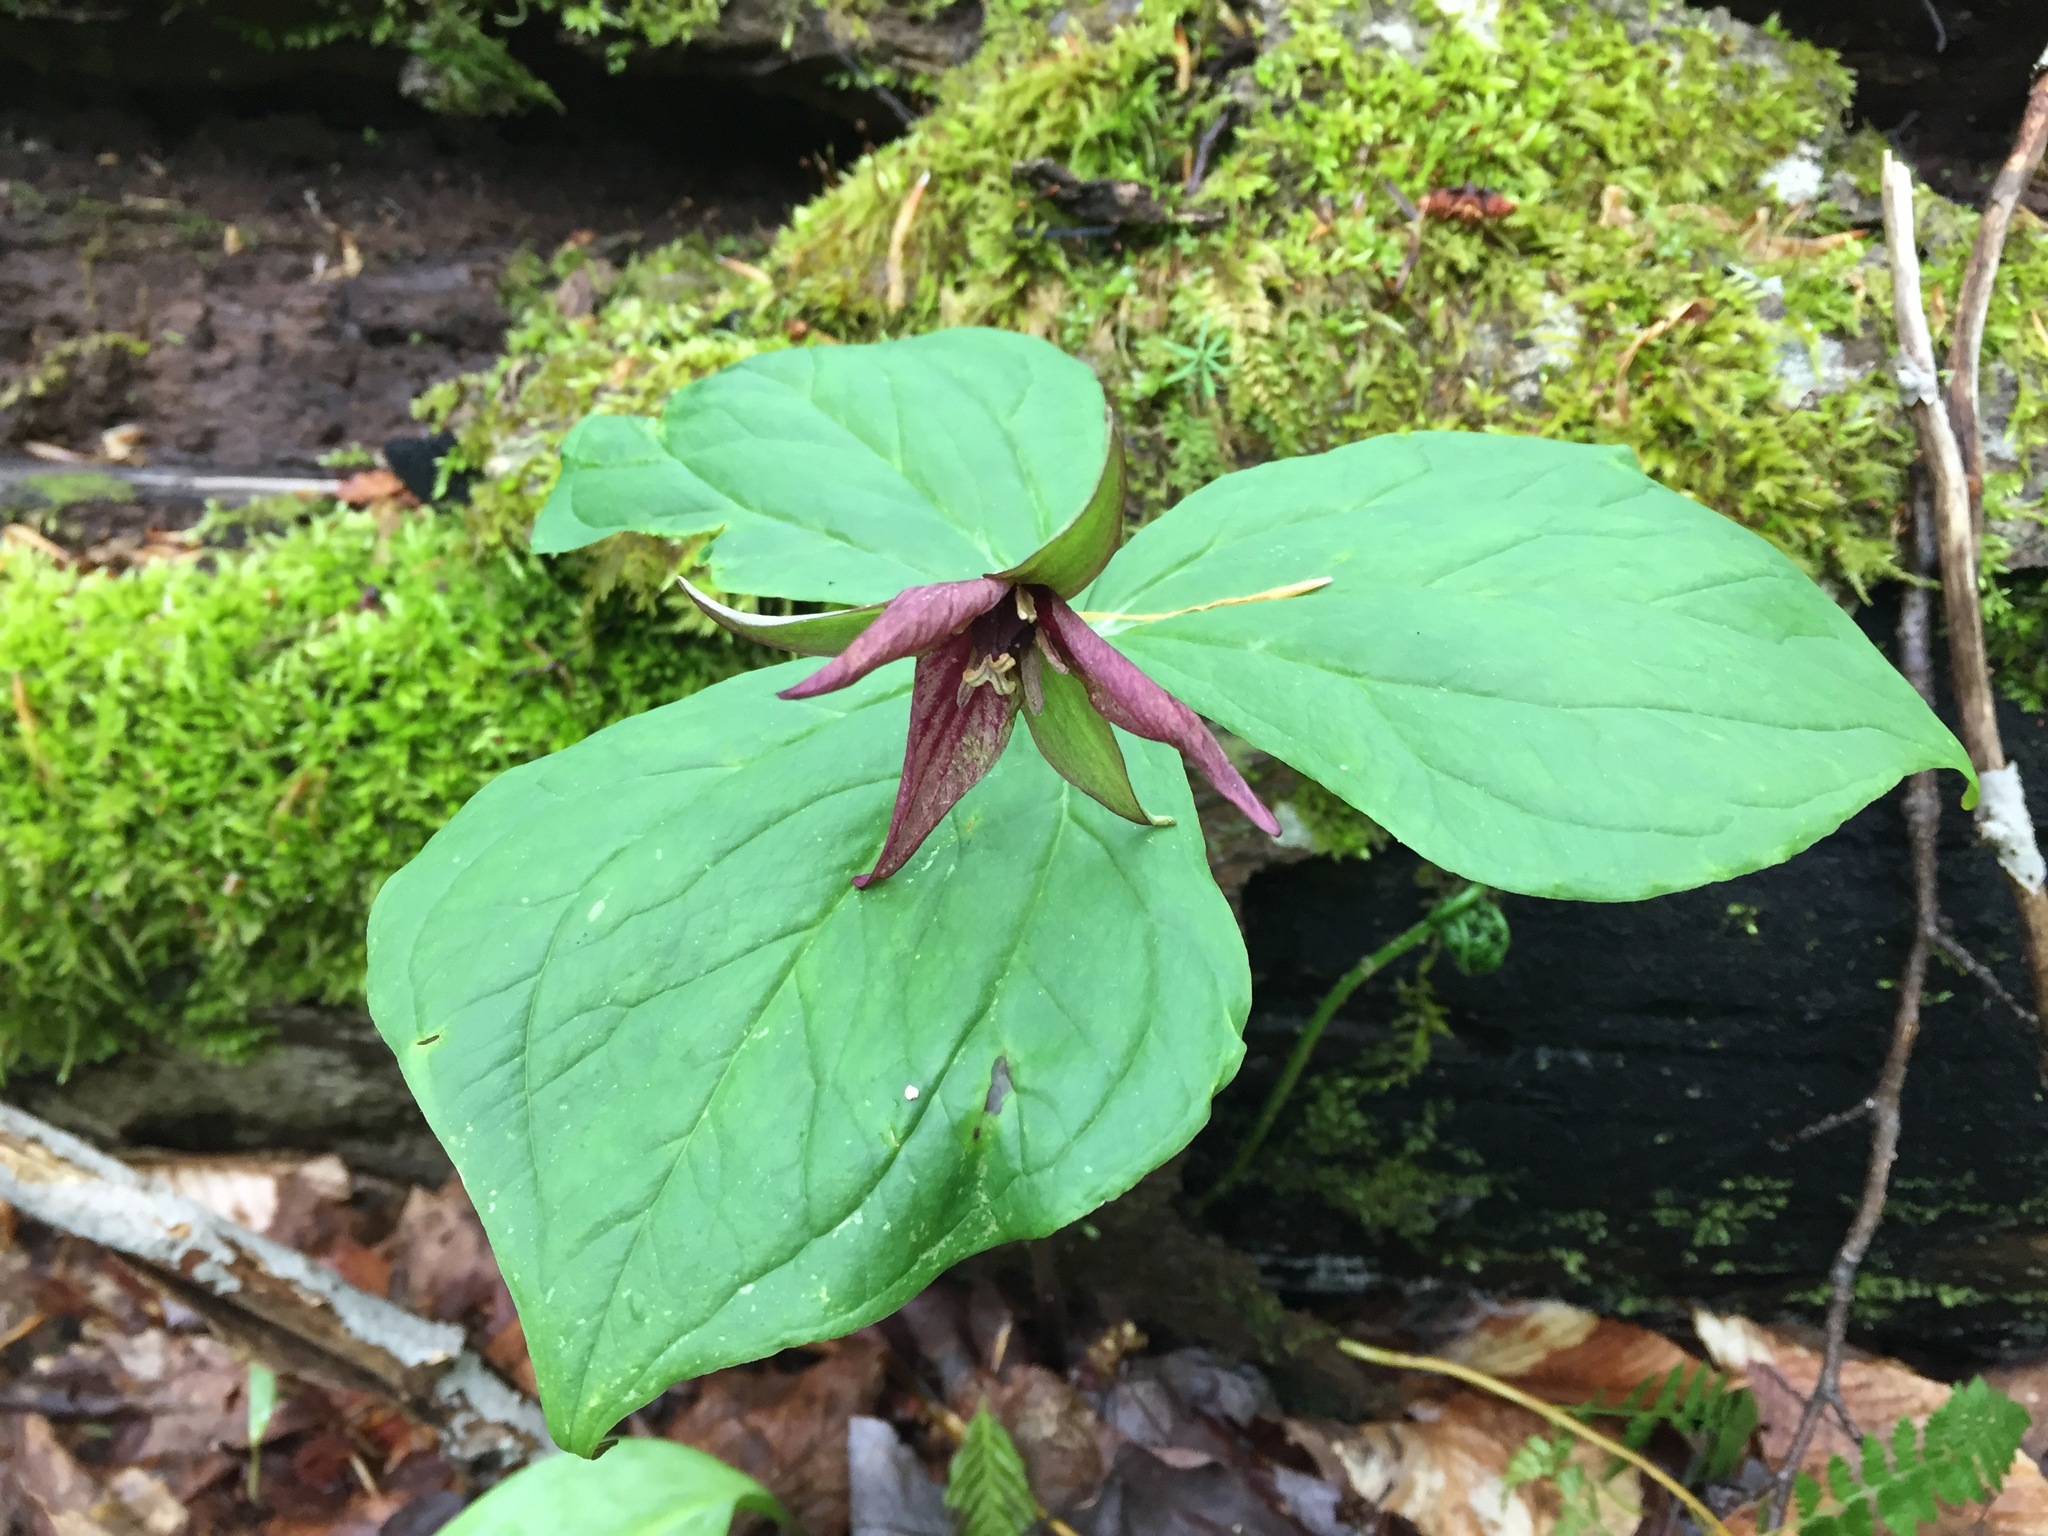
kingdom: Plantae
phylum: Tracheophyta
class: Liliopsida
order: Liliales
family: Melanthiaceae
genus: Trillium
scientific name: Trillium erectum
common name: Purple trillium
